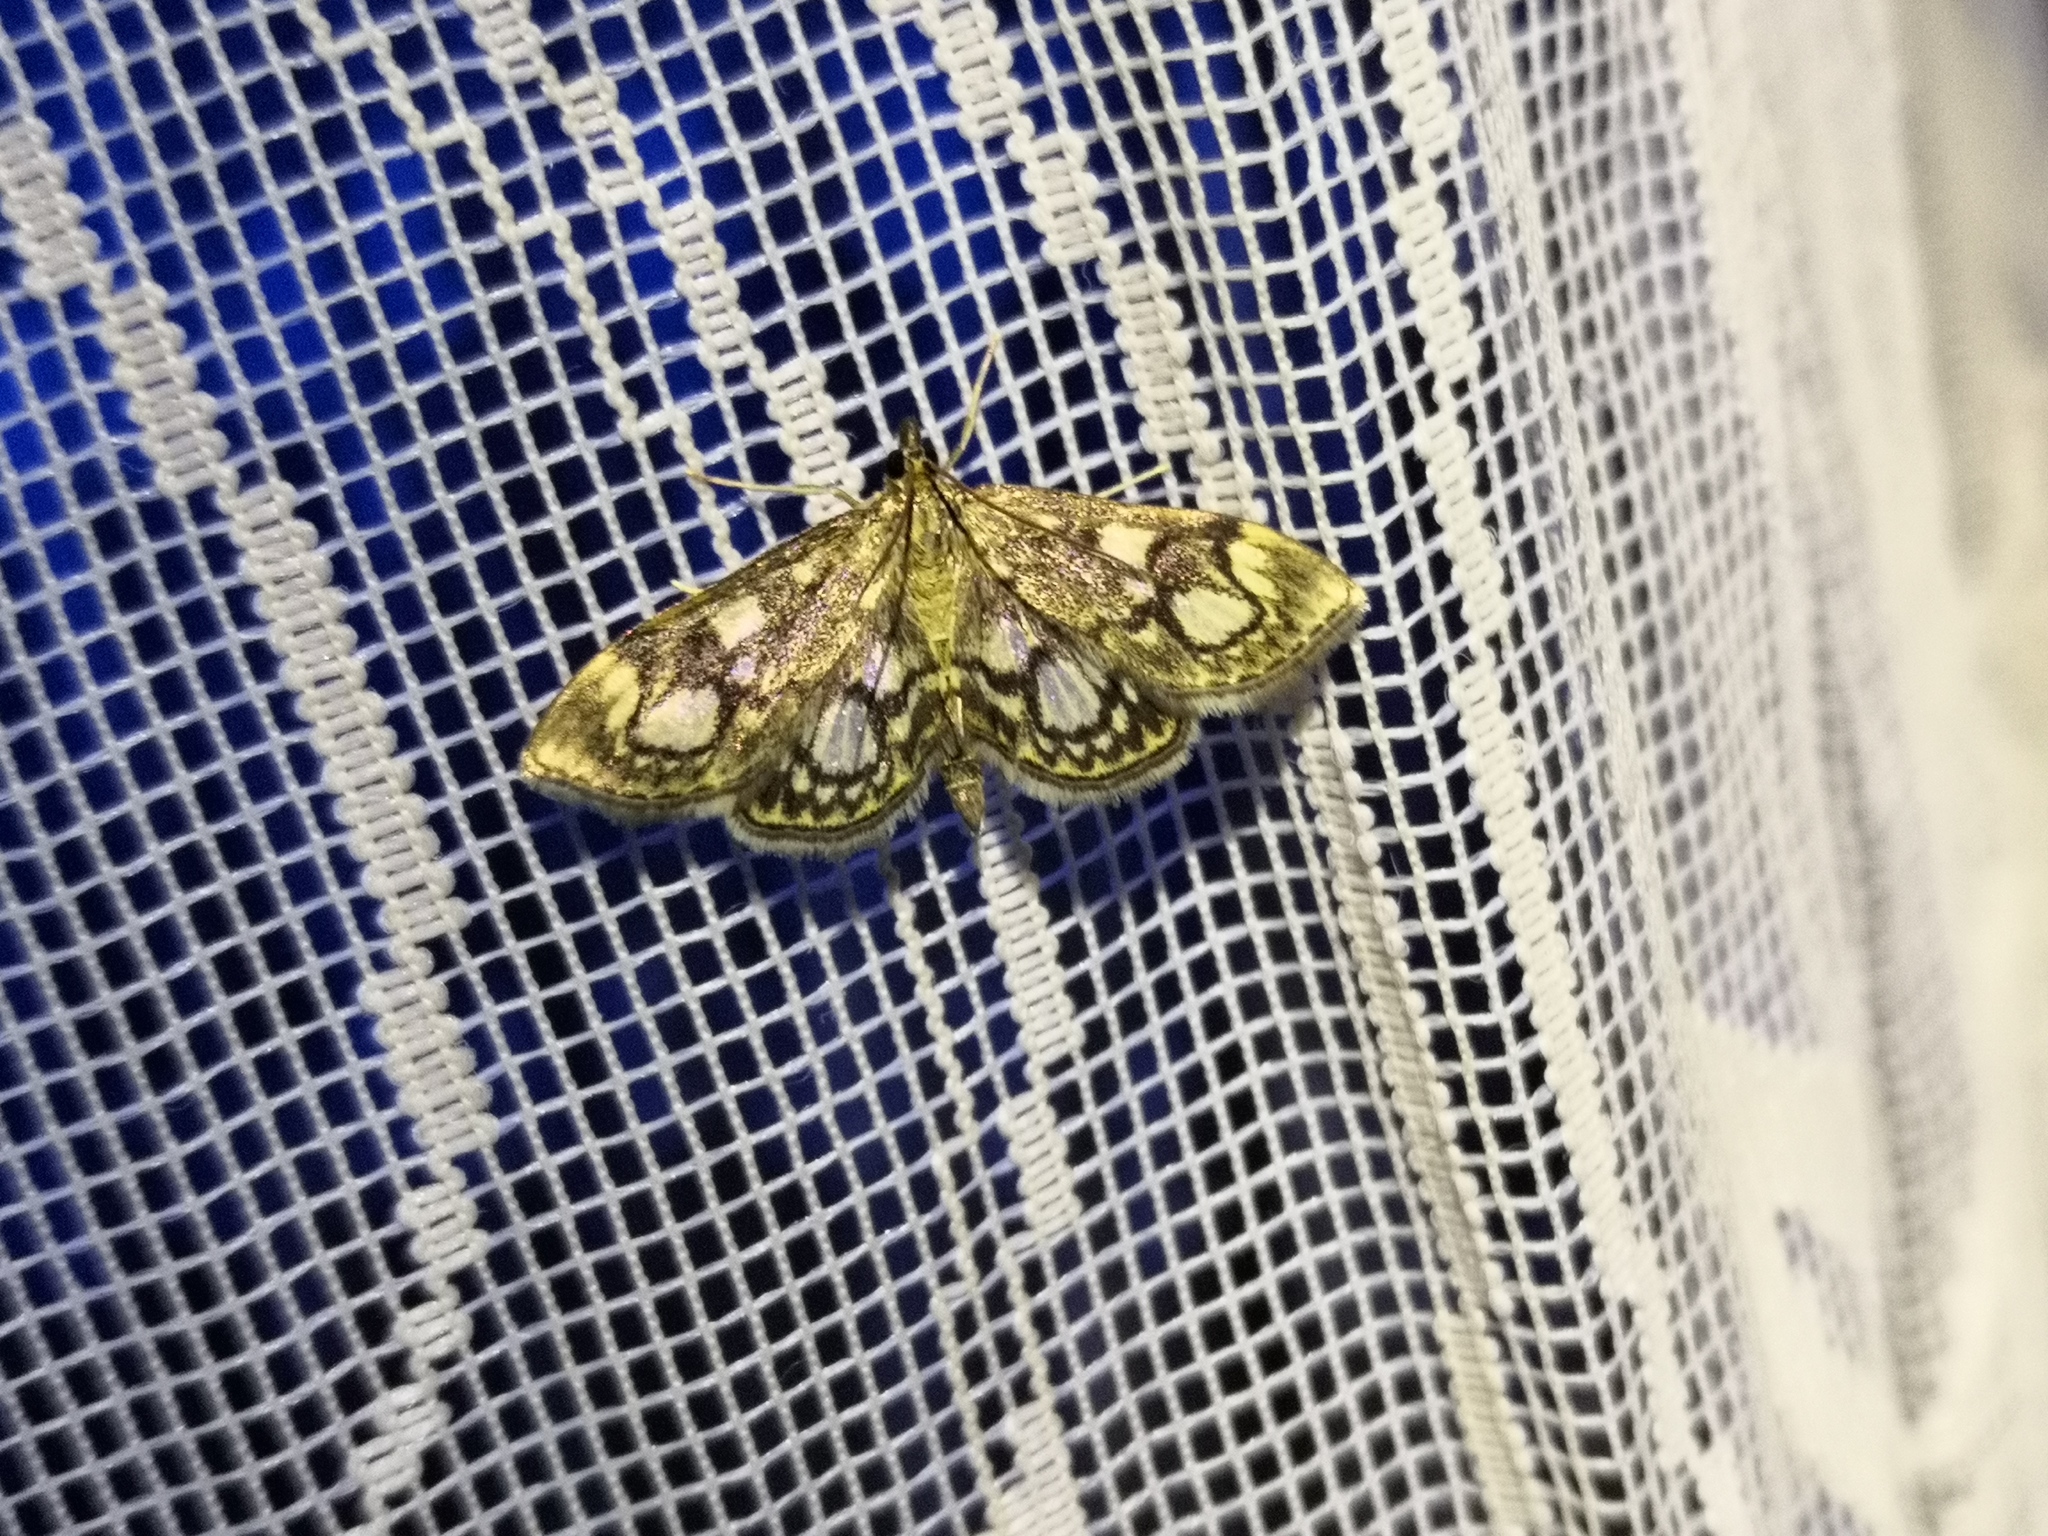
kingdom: Animalia
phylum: Arthropoda
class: Insecta
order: Lepidoptera
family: Crambidae
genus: Anania
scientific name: Anania coronata
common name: Elder pearl
